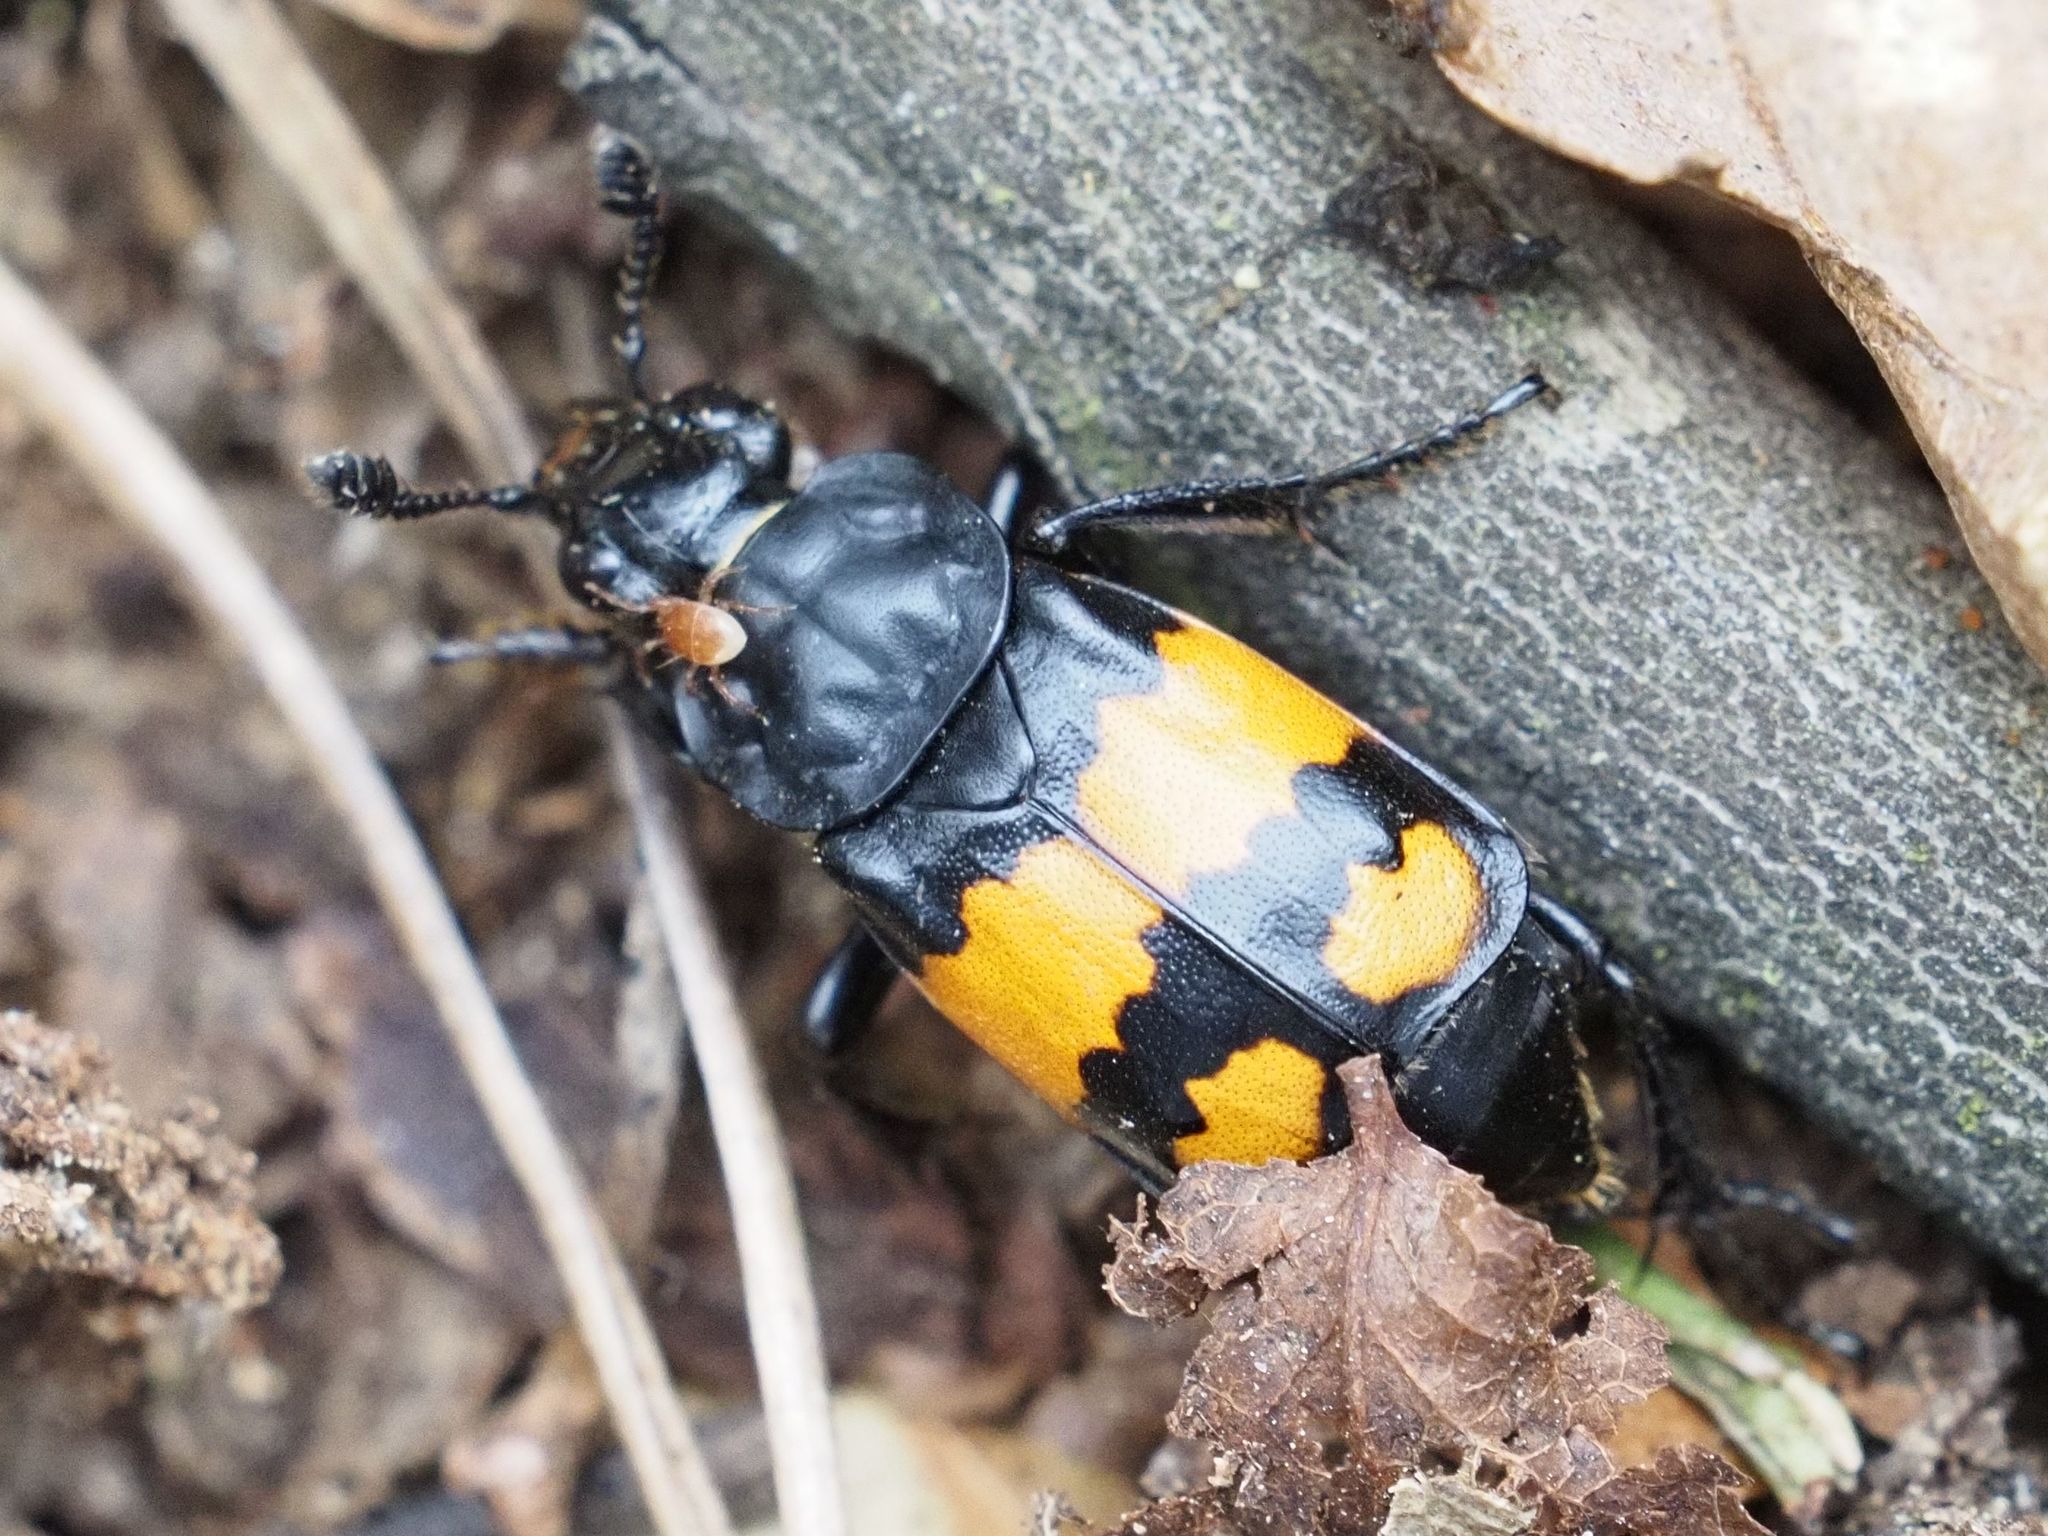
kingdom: Animalia
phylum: Arthropoda
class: Insecta
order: Coleoptera
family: Staphylinidae
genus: Nicrophorus
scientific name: Nicrophorus vespilloides
